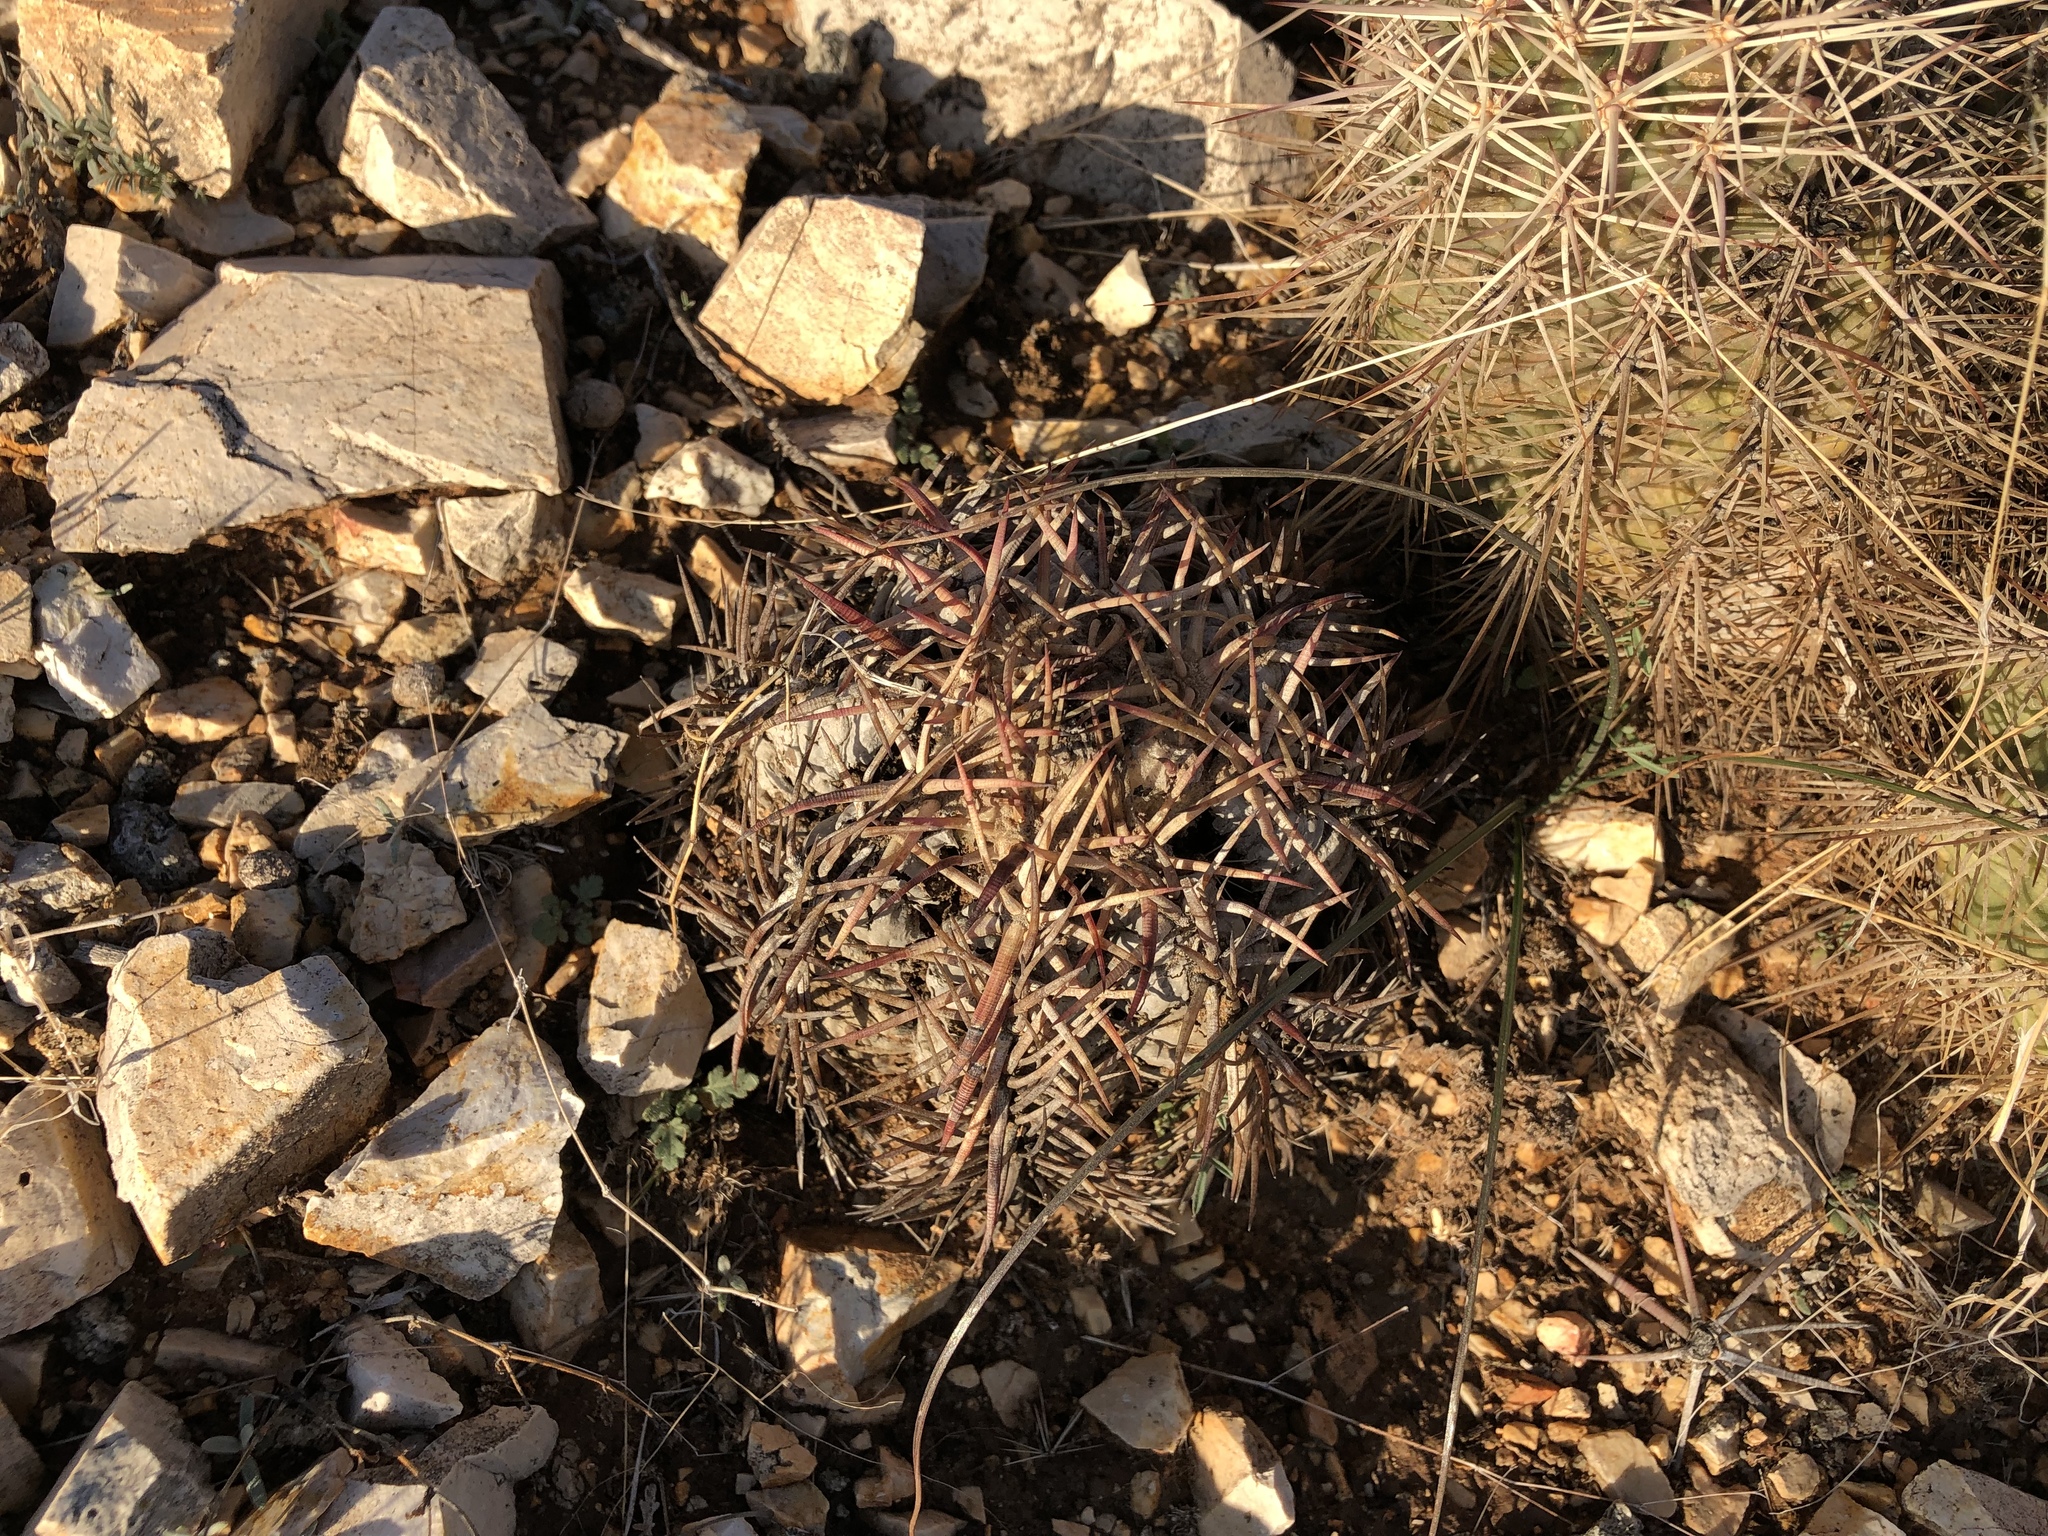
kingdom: Plantae
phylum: Tracheophyta
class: Magnoliopsida
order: Caryophyllales
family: Cactaceae
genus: Echinocactus
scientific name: Echinocactus horizonthalonius
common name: Devilshead
